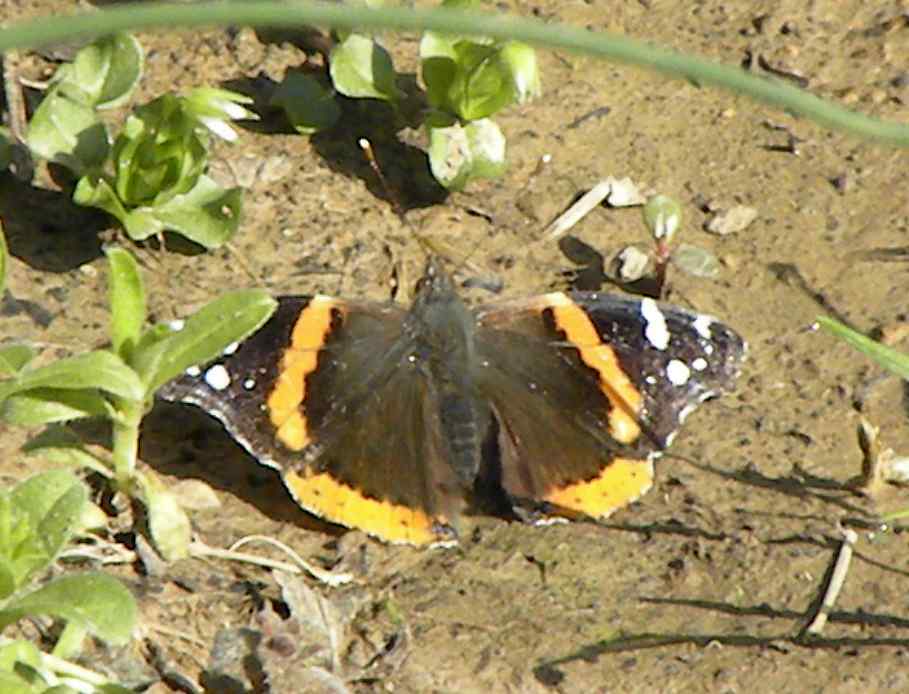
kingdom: Animalia
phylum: Arthropoda
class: Insecta
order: Lepidoptera
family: Nymphalidae
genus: Vanessa
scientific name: Vanessa atalanta
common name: Red admiral
